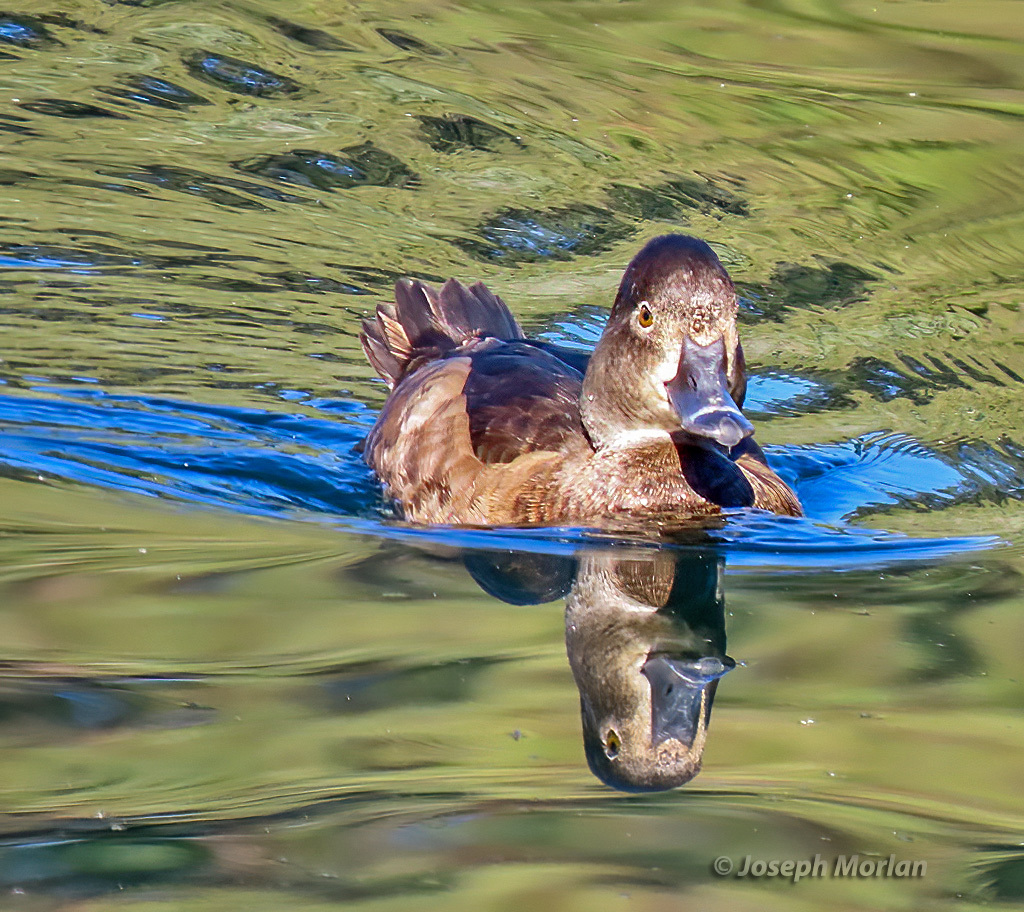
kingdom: Animalia
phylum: Chordata
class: Aves
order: Anseriformes
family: Anatidae
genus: Aythya
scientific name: Aythya collaris
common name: Ring-necked duck
